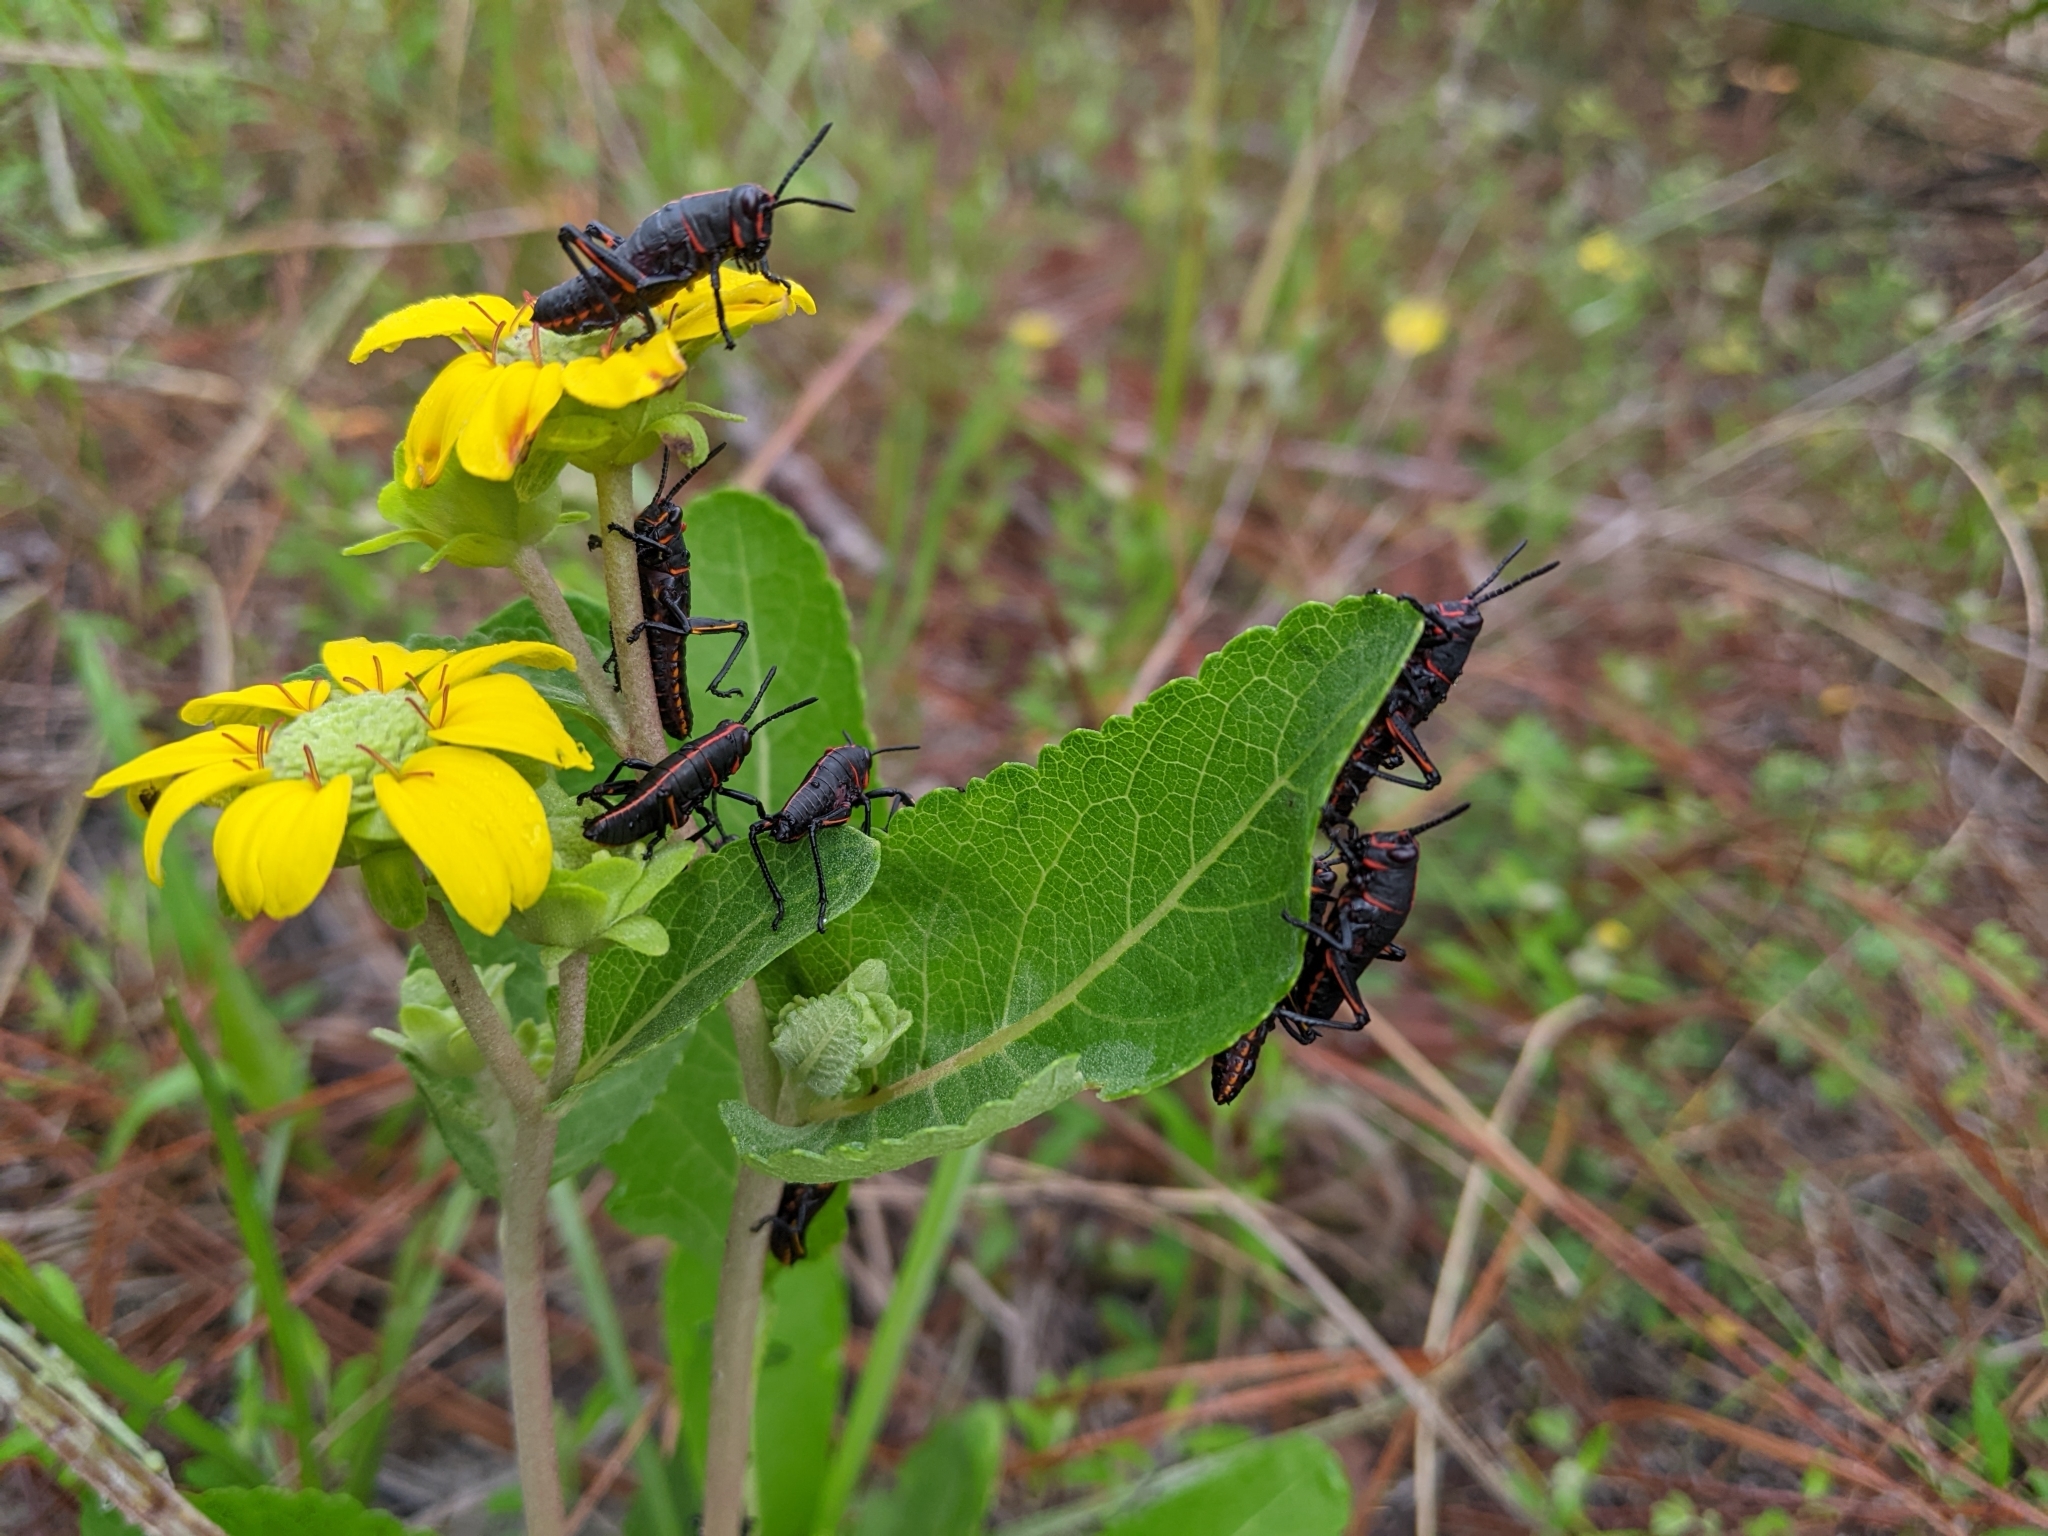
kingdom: Animalia
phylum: Arthropoda
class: Insecta
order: Orthoptera
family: Romaleidae
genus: Romalea
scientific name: Romalea microptera
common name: Eastern lubber grasshopper
